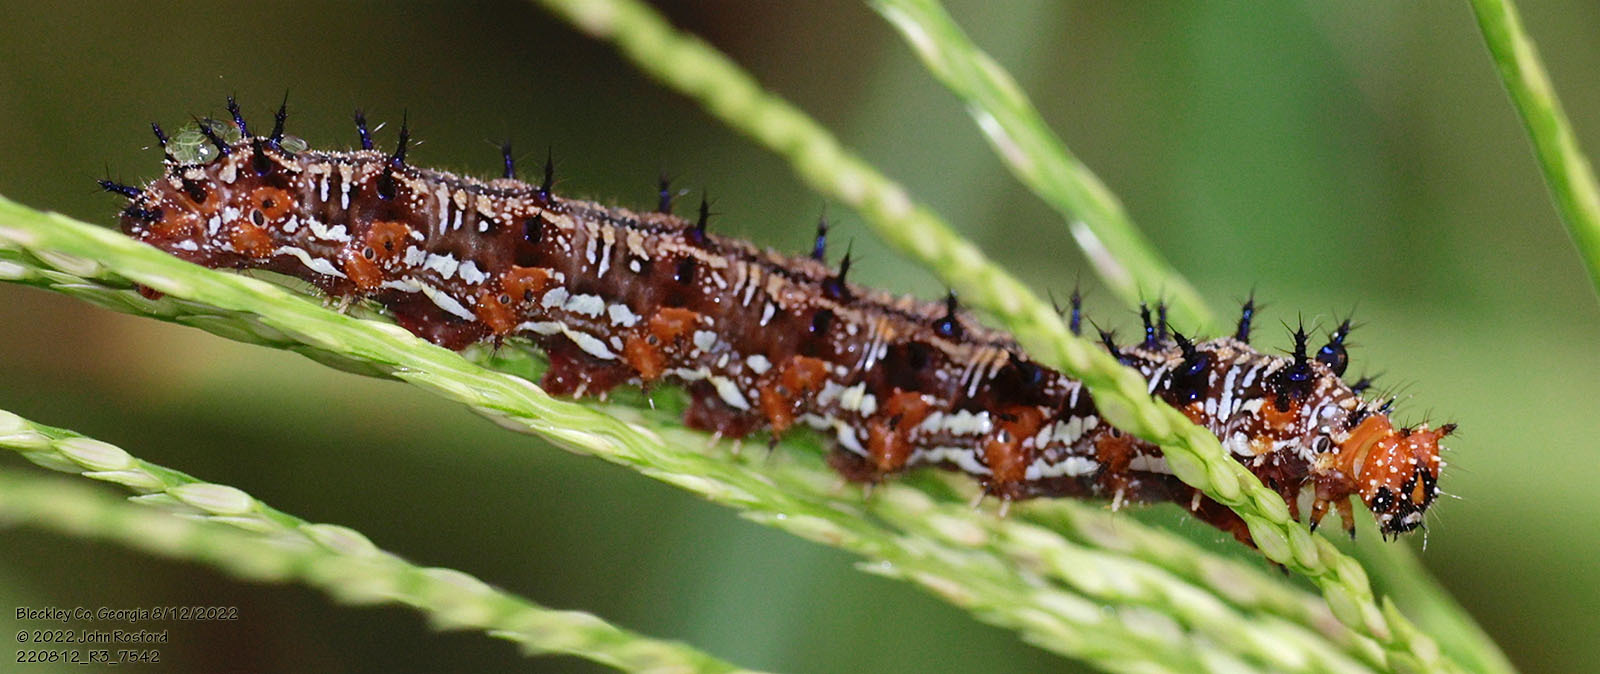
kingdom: Animalia
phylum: Arthropoda
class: Insecta
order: Lepidoptera
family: Nymphalidae
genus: Junonia
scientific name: Junonia coenia
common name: Common buckeye
